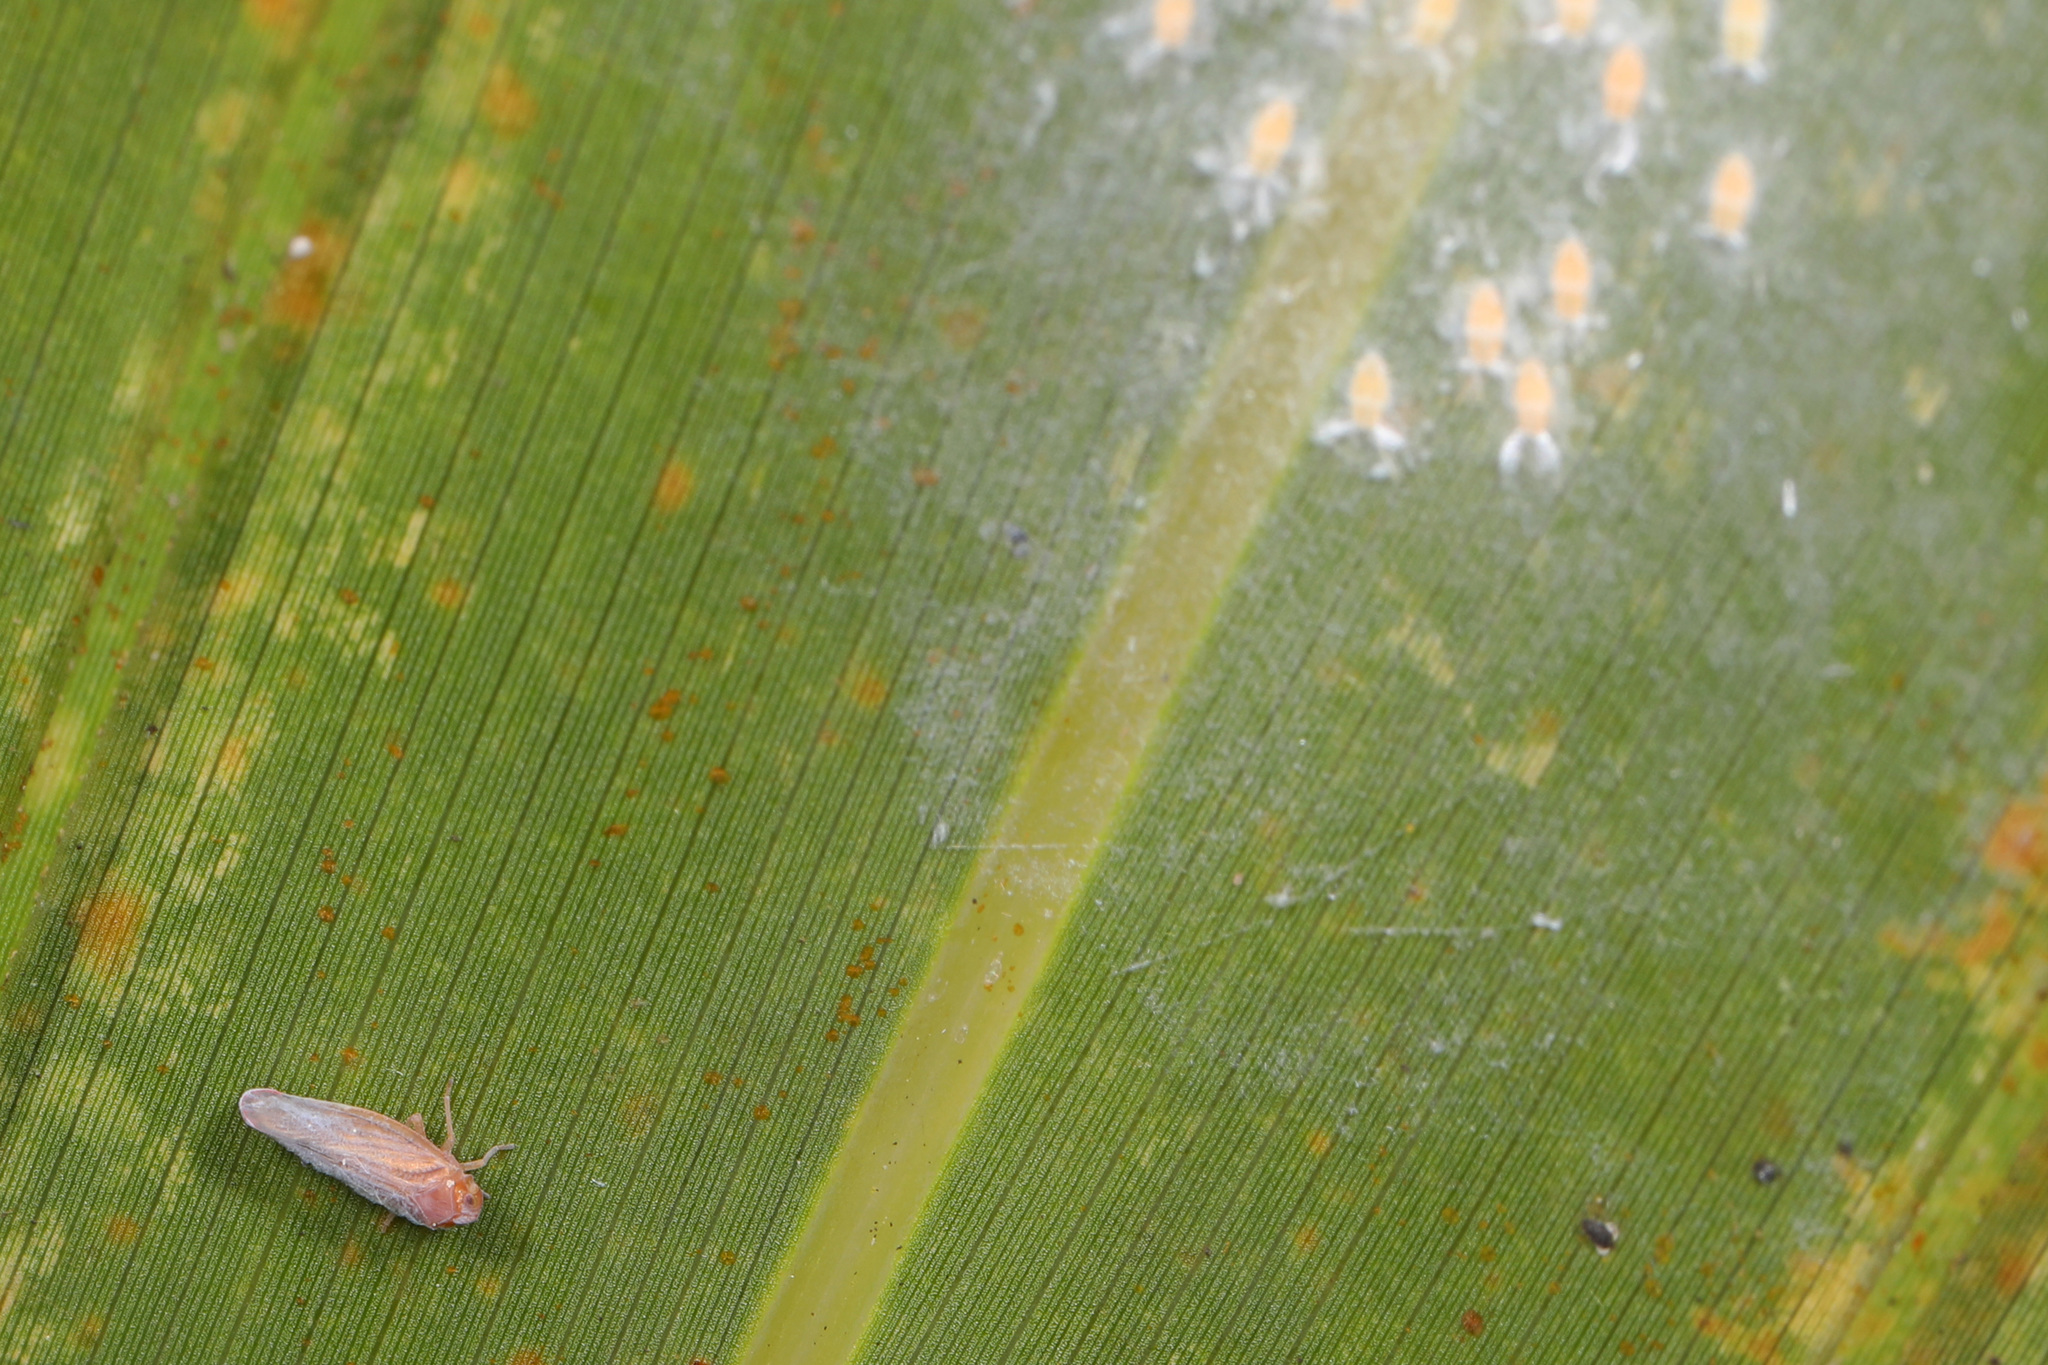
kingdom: Animalia
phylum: Arthropoda
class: Insecta
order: Hemiptera
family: Derbidae
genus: Omolicna
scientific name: Omolicna joi
